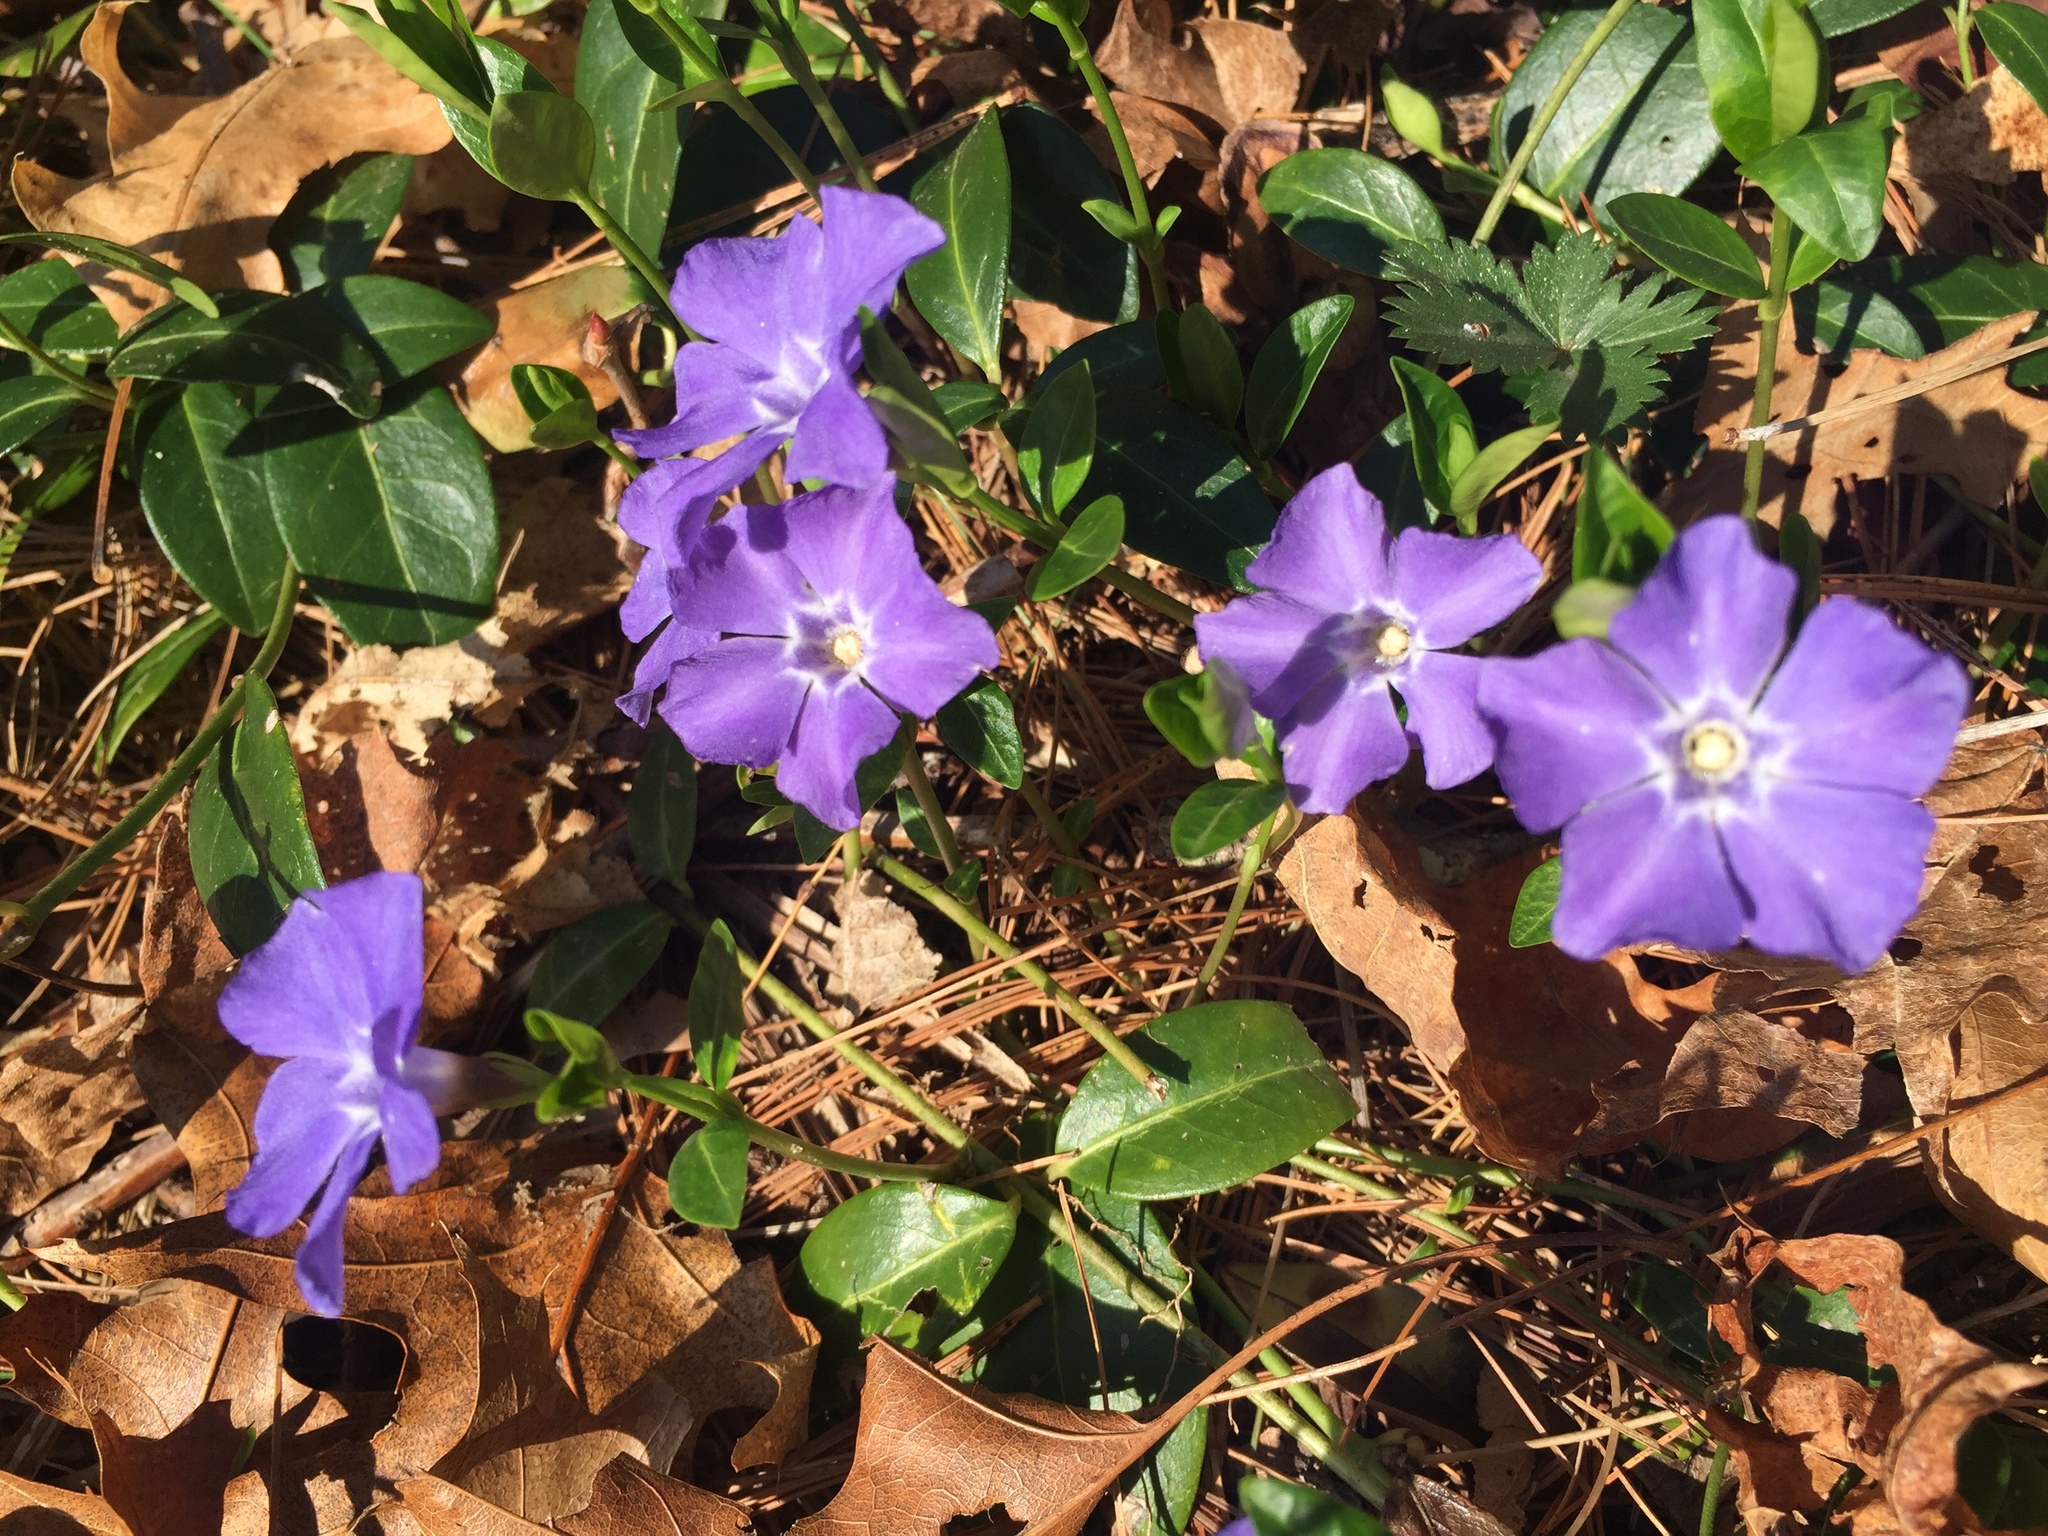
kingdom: Plantae
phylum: Tracheophyta
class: Magnoliopsida
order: Gentianales
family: Apocynaceae
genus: Vinca
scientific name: Vinca minor
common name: Lesser periwinkle
